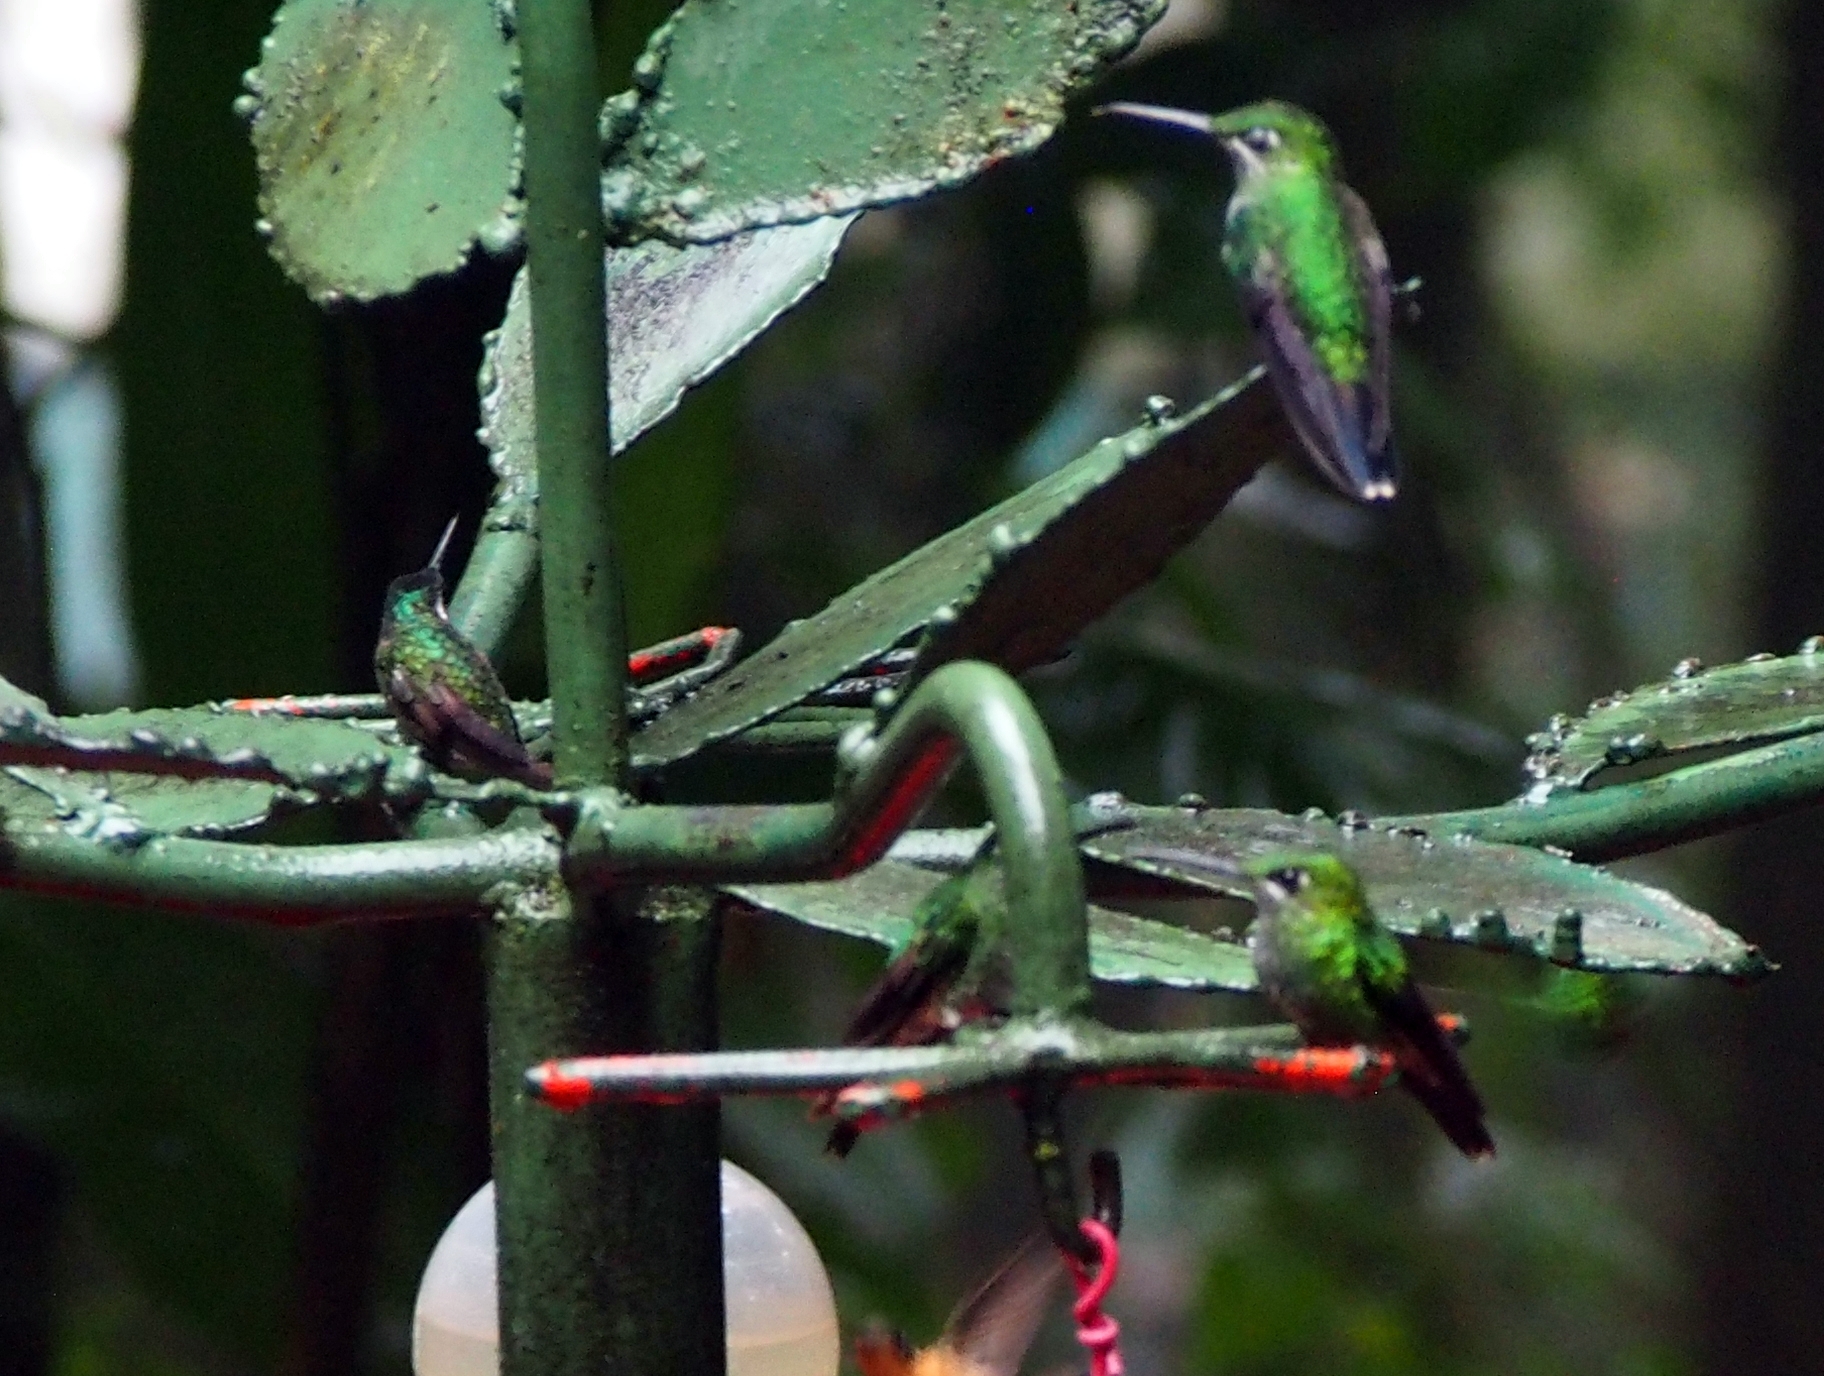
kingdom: Animalia
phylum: Chordata
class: Aves
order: Apodiformes
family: Trochilidae
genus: Lampornis
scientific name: Lampornis calolaemus
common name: Purple-throated mountain-gem
